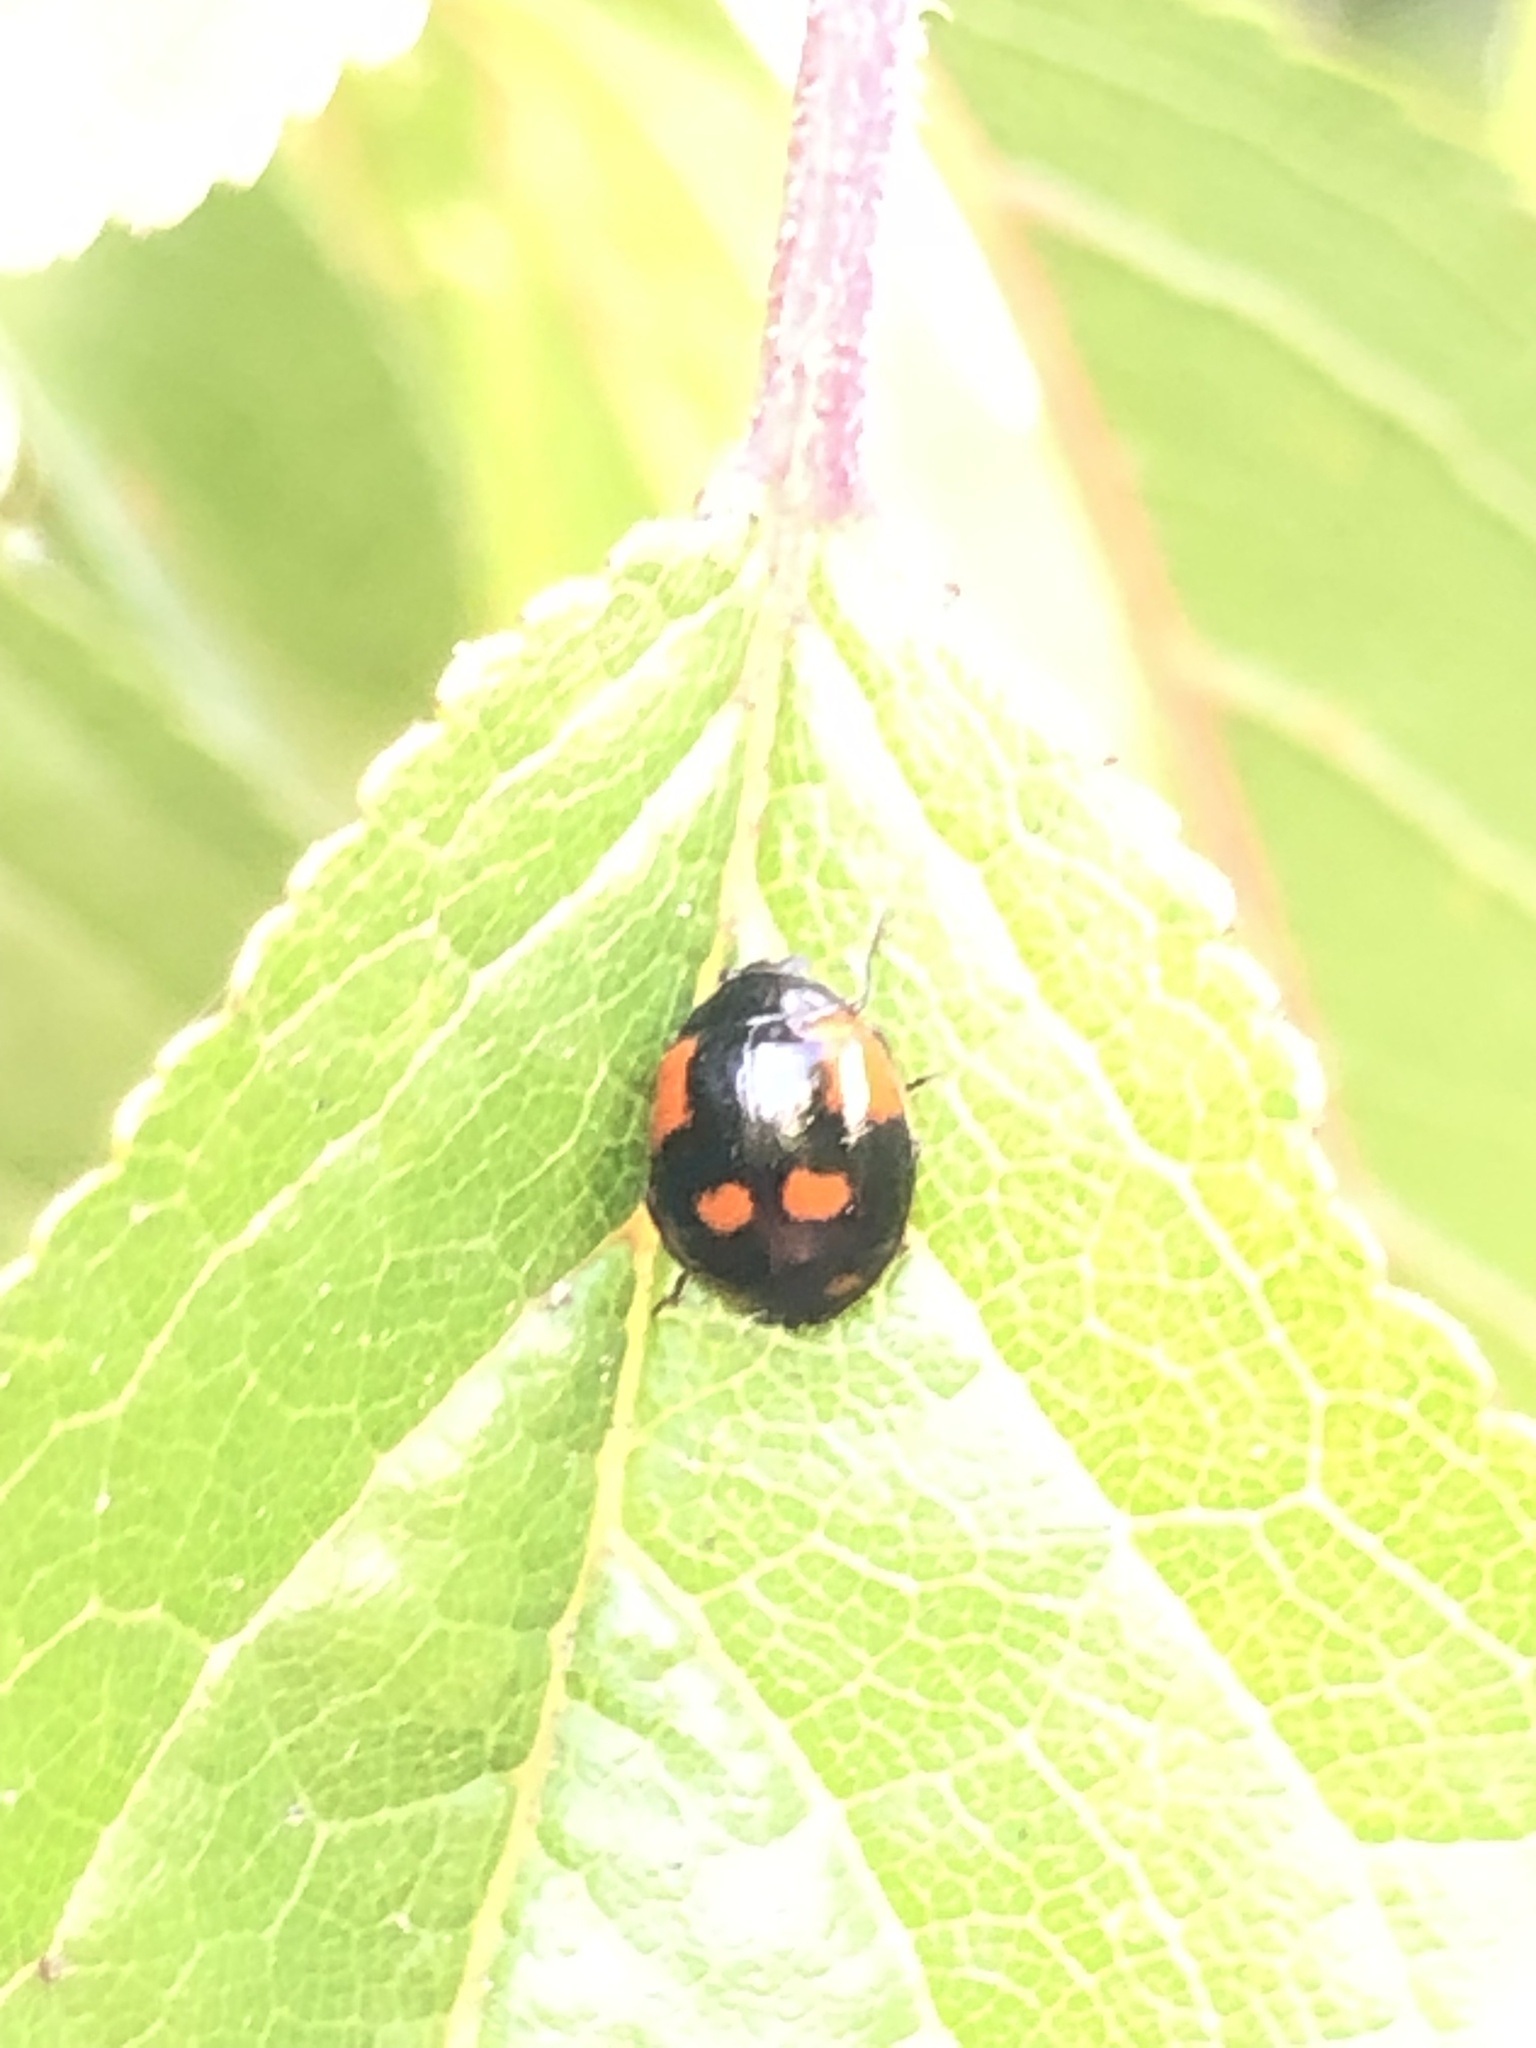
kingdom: Animalia
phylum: Arthropoda
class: Insecta
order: Coleoptera
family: Coccinellidae
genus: Adalia
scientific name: Adalia bipunctata
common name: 2-spot ladybird
